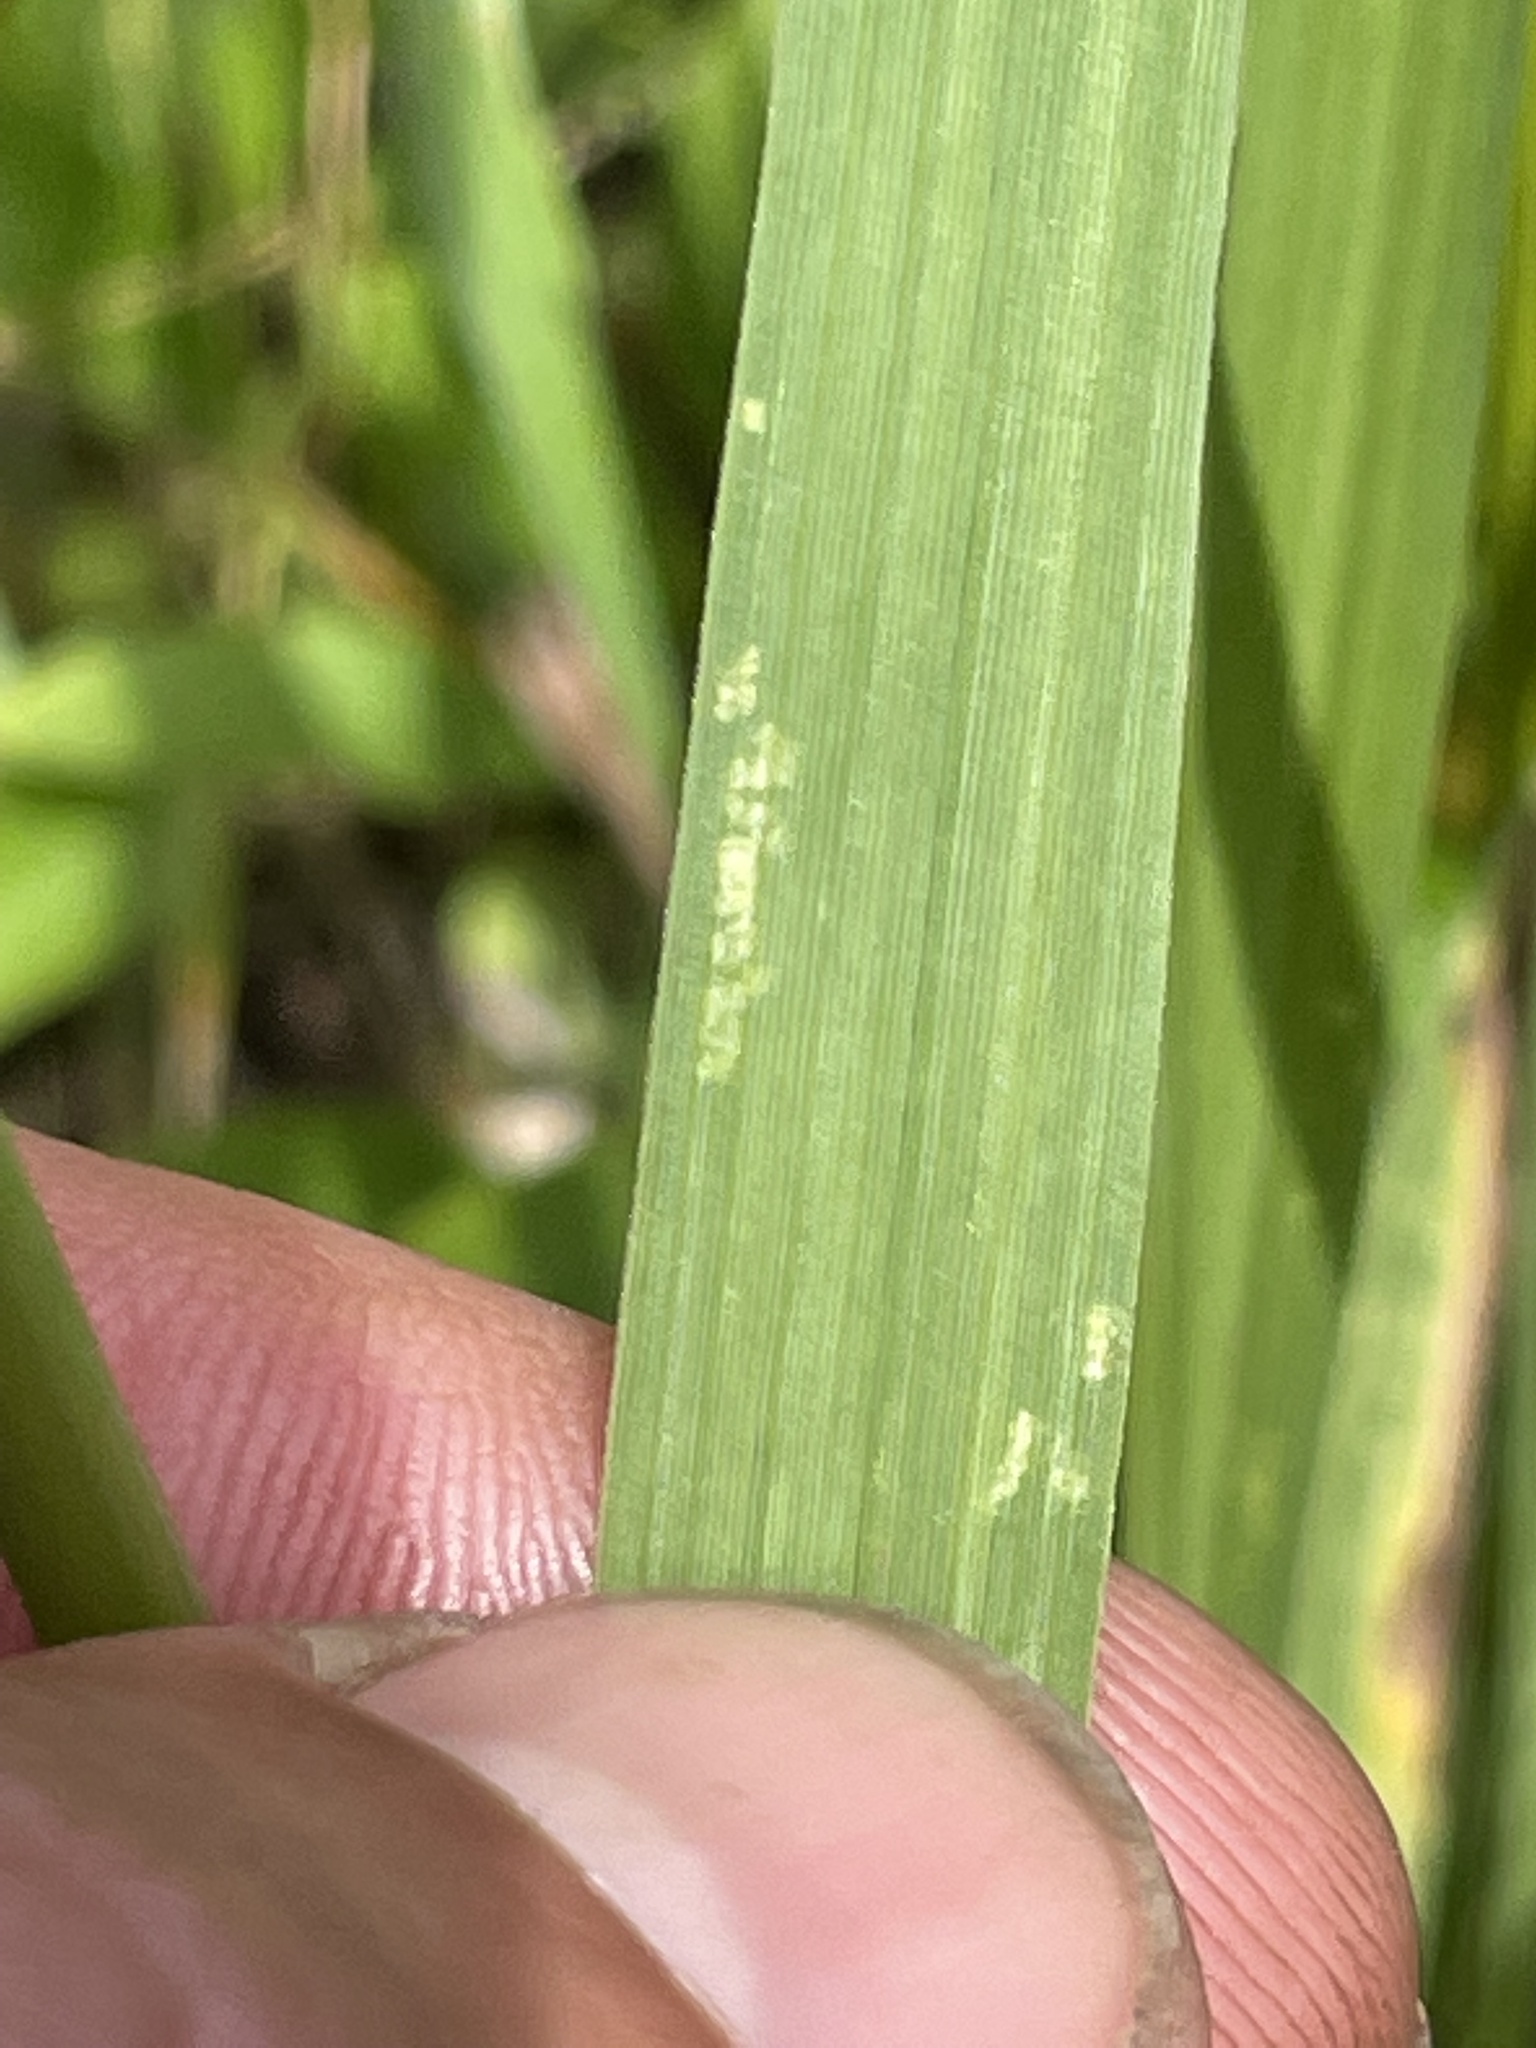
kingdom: Plantae
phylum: Tracheophyta
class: Liliopsida
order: Poales
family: Poaceae
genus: Alopecurus
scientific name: Alopecurus pratensis
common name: Meadow foxtail
